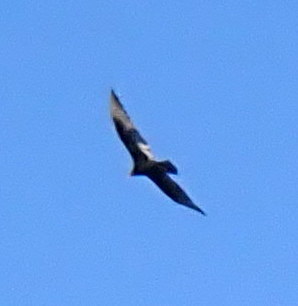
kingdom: Animalia
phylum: Chordata
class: Aves
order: Accipitriformes
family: Cathartidae
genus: Cathartes
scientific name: Cathartes aura
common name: Turkey vulture
